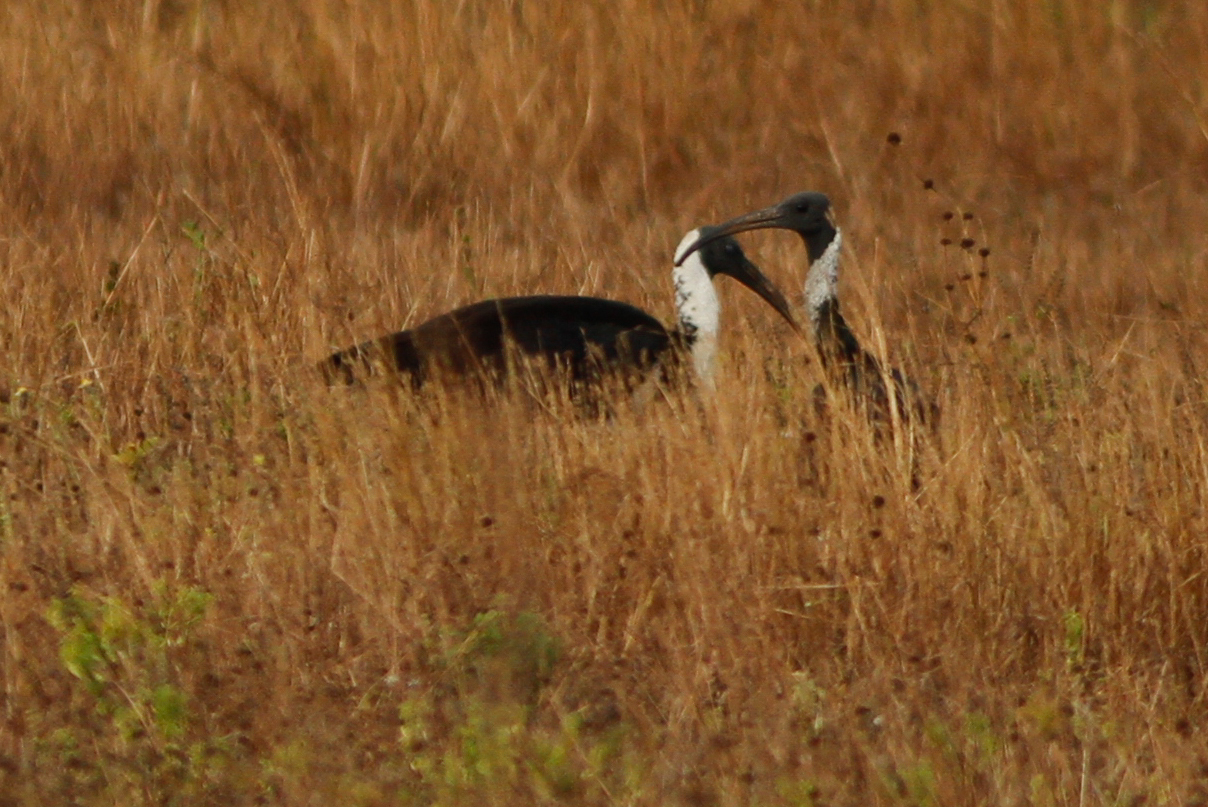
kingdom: Animalia
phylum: Chordata
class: Aves
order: Pelecaniformes
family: Threskiornithidae
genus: Threskiornis
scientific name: Threskiornis spinicollis
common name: Straw-necked ibis
